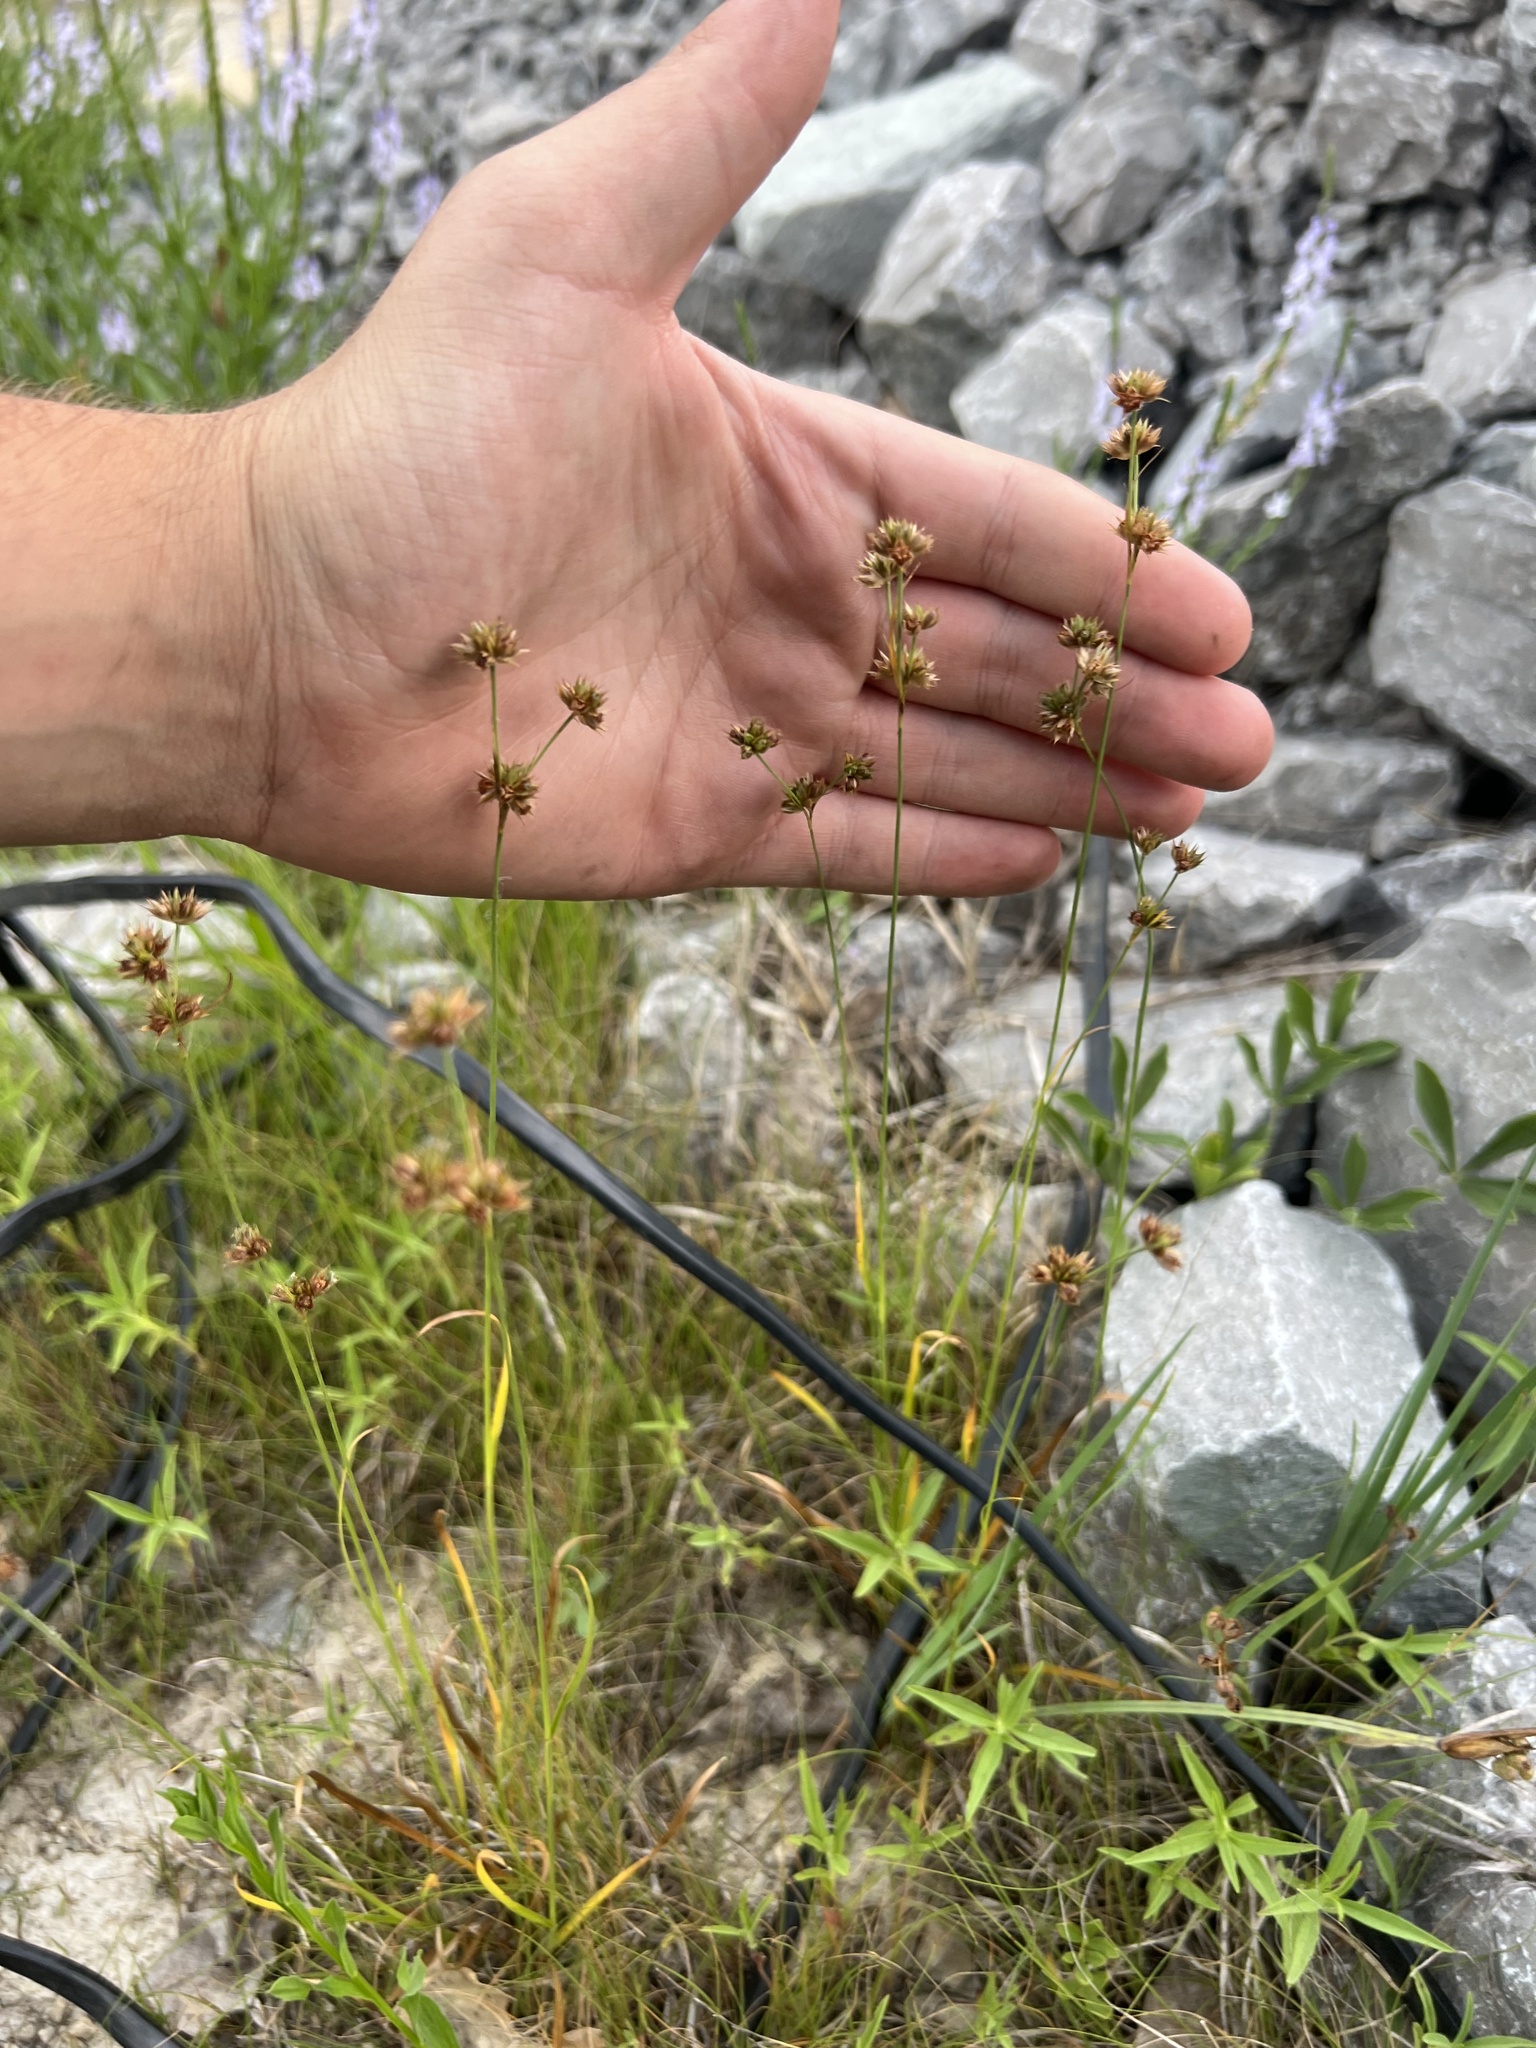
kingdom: Plantae
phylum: Tracheophyta
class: Liliopsida
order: Poales
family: Juncaceae
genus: Juncus
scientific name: Juncus filipendulus
